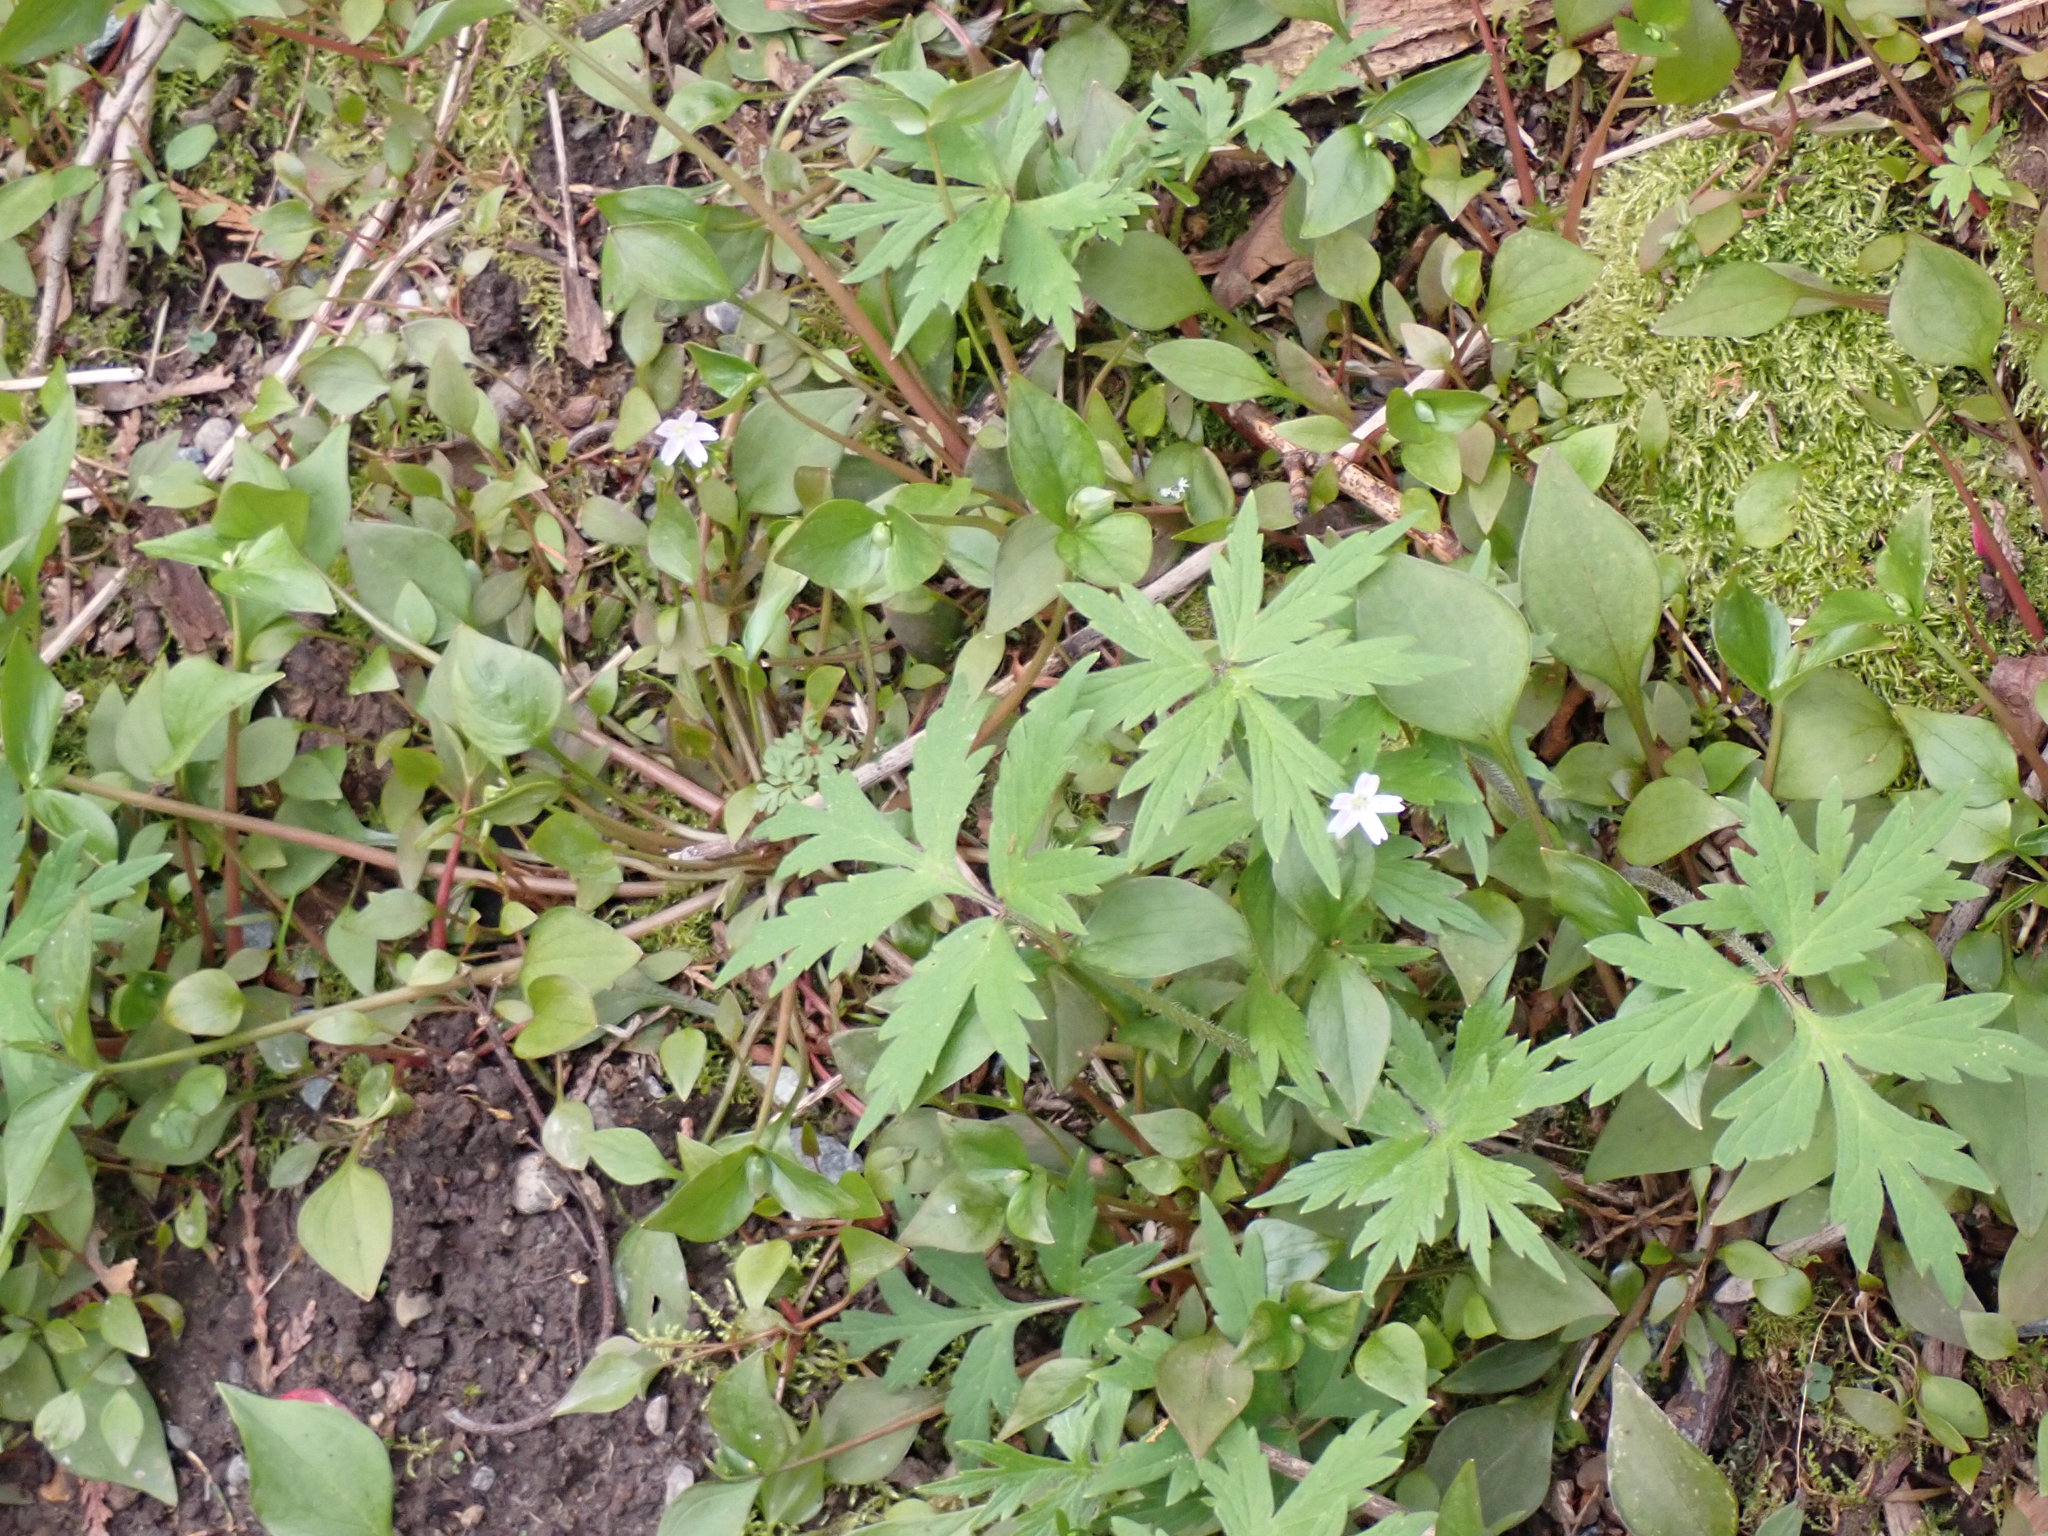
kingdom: Plantae
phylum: Tracheophyta
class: Magnoliopsida
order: Caryophyllales
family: Montiaceae
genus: Claytonia
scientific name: Claytonia sibirica
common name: Pink purslane
